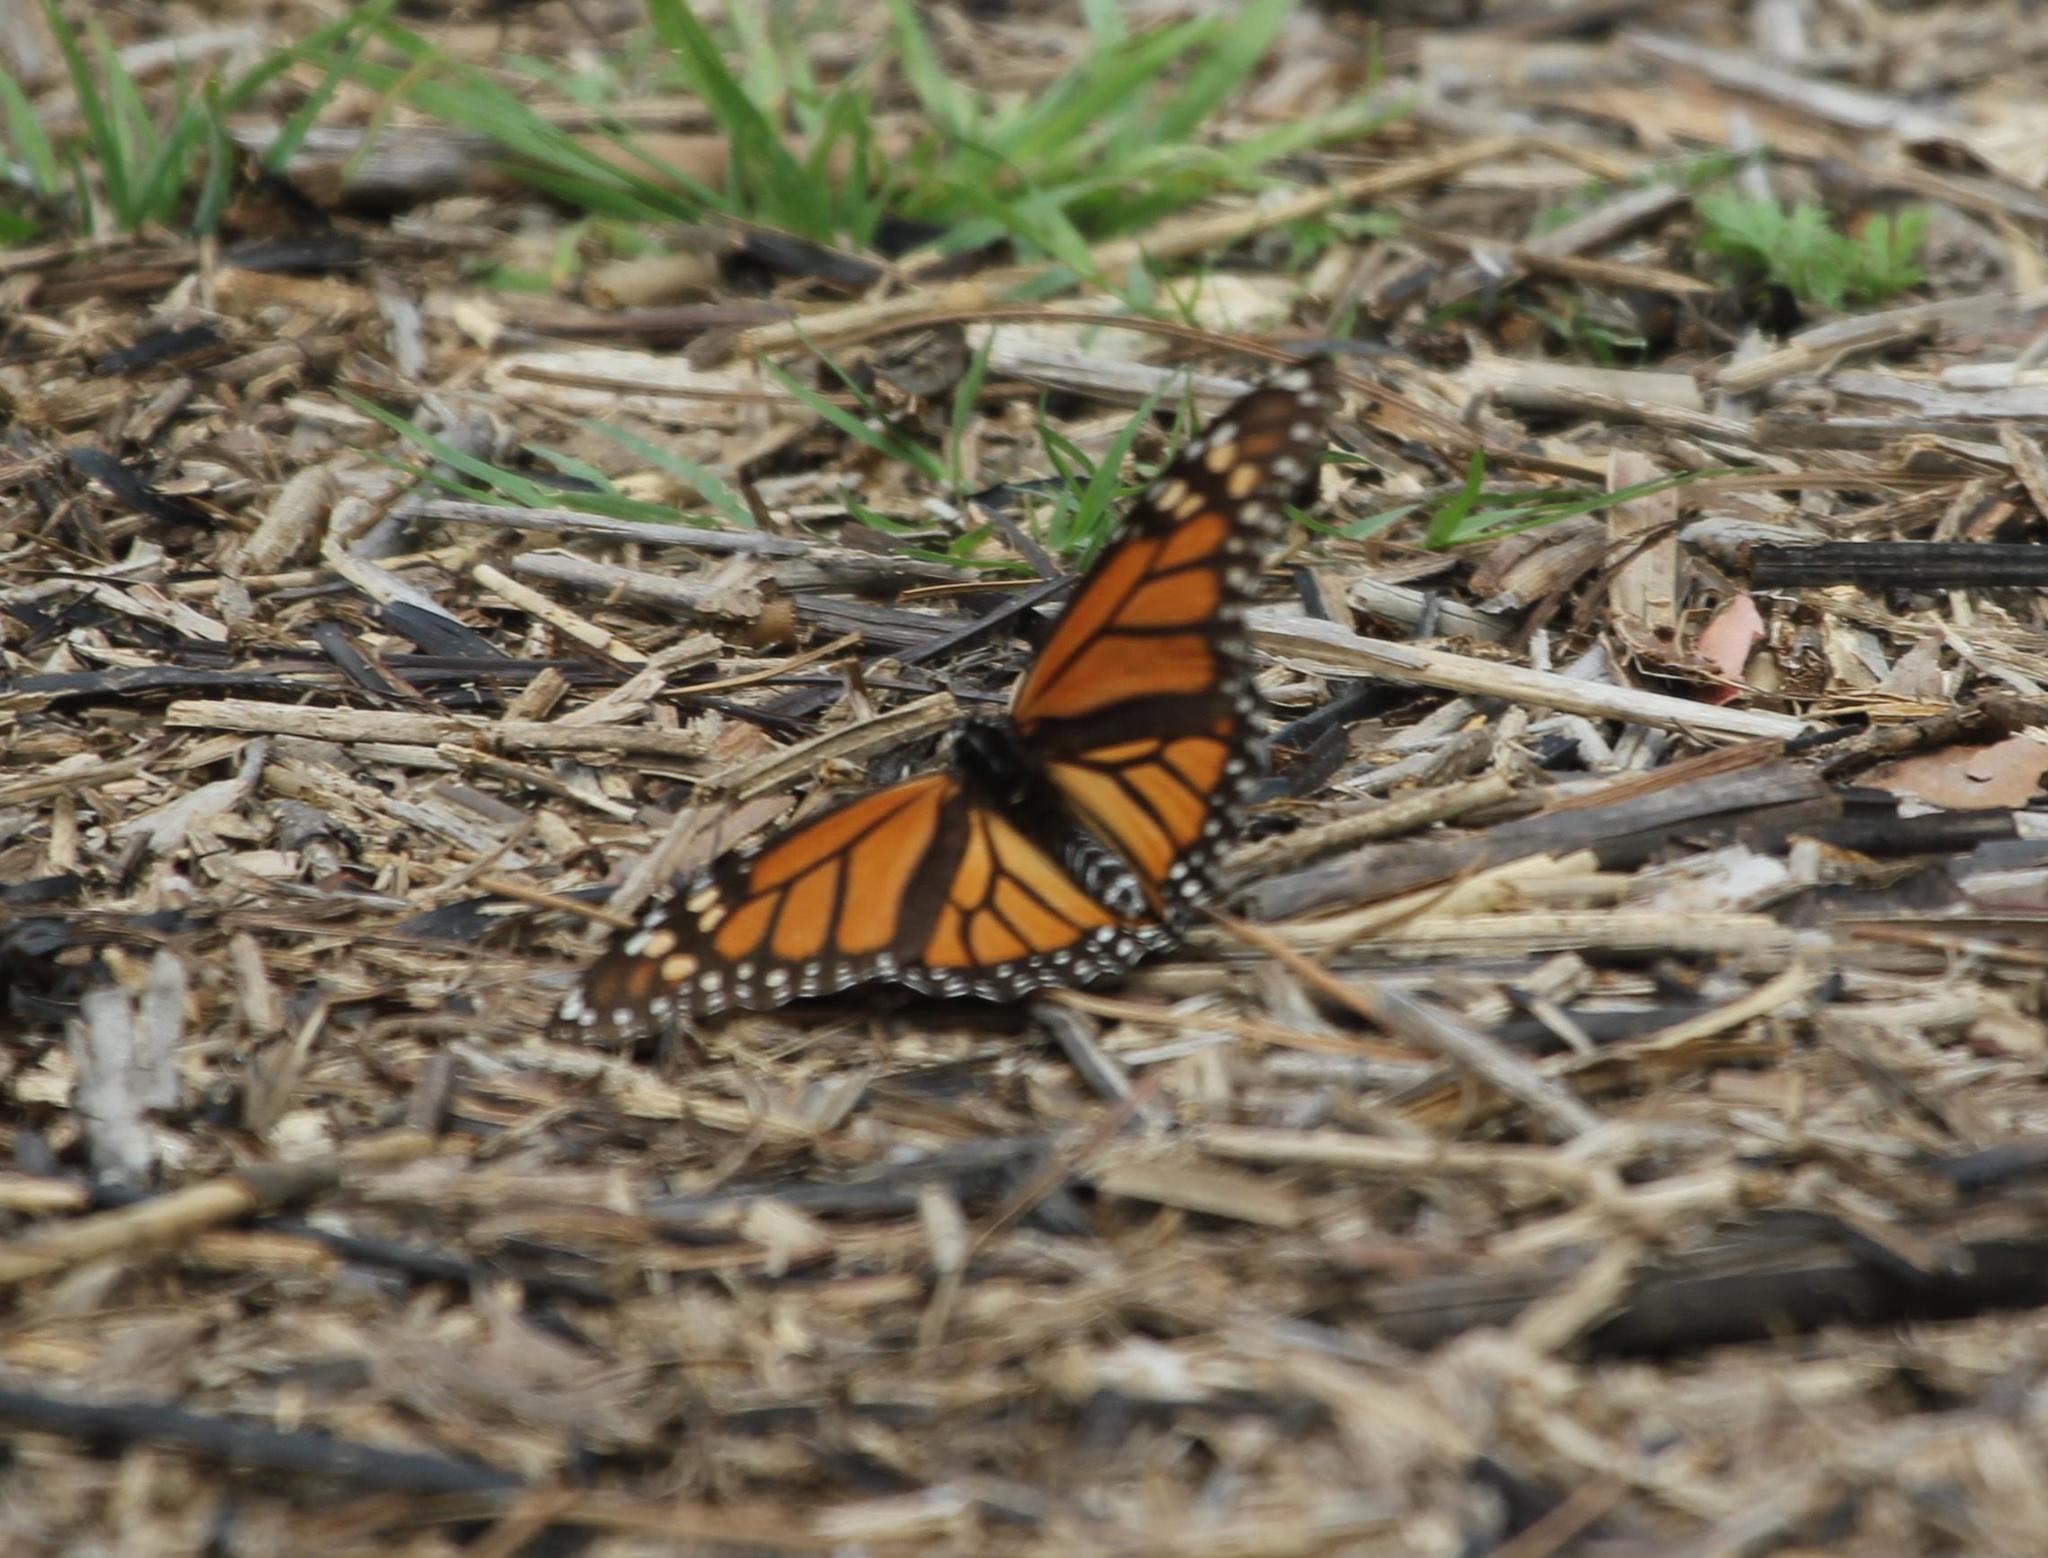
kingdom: Animalia
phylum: Arthropoda
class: Insecta
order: Lepidoptera
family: Nymphalidae
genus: Danaus
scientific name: Danaus plexippus
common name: Monarch
